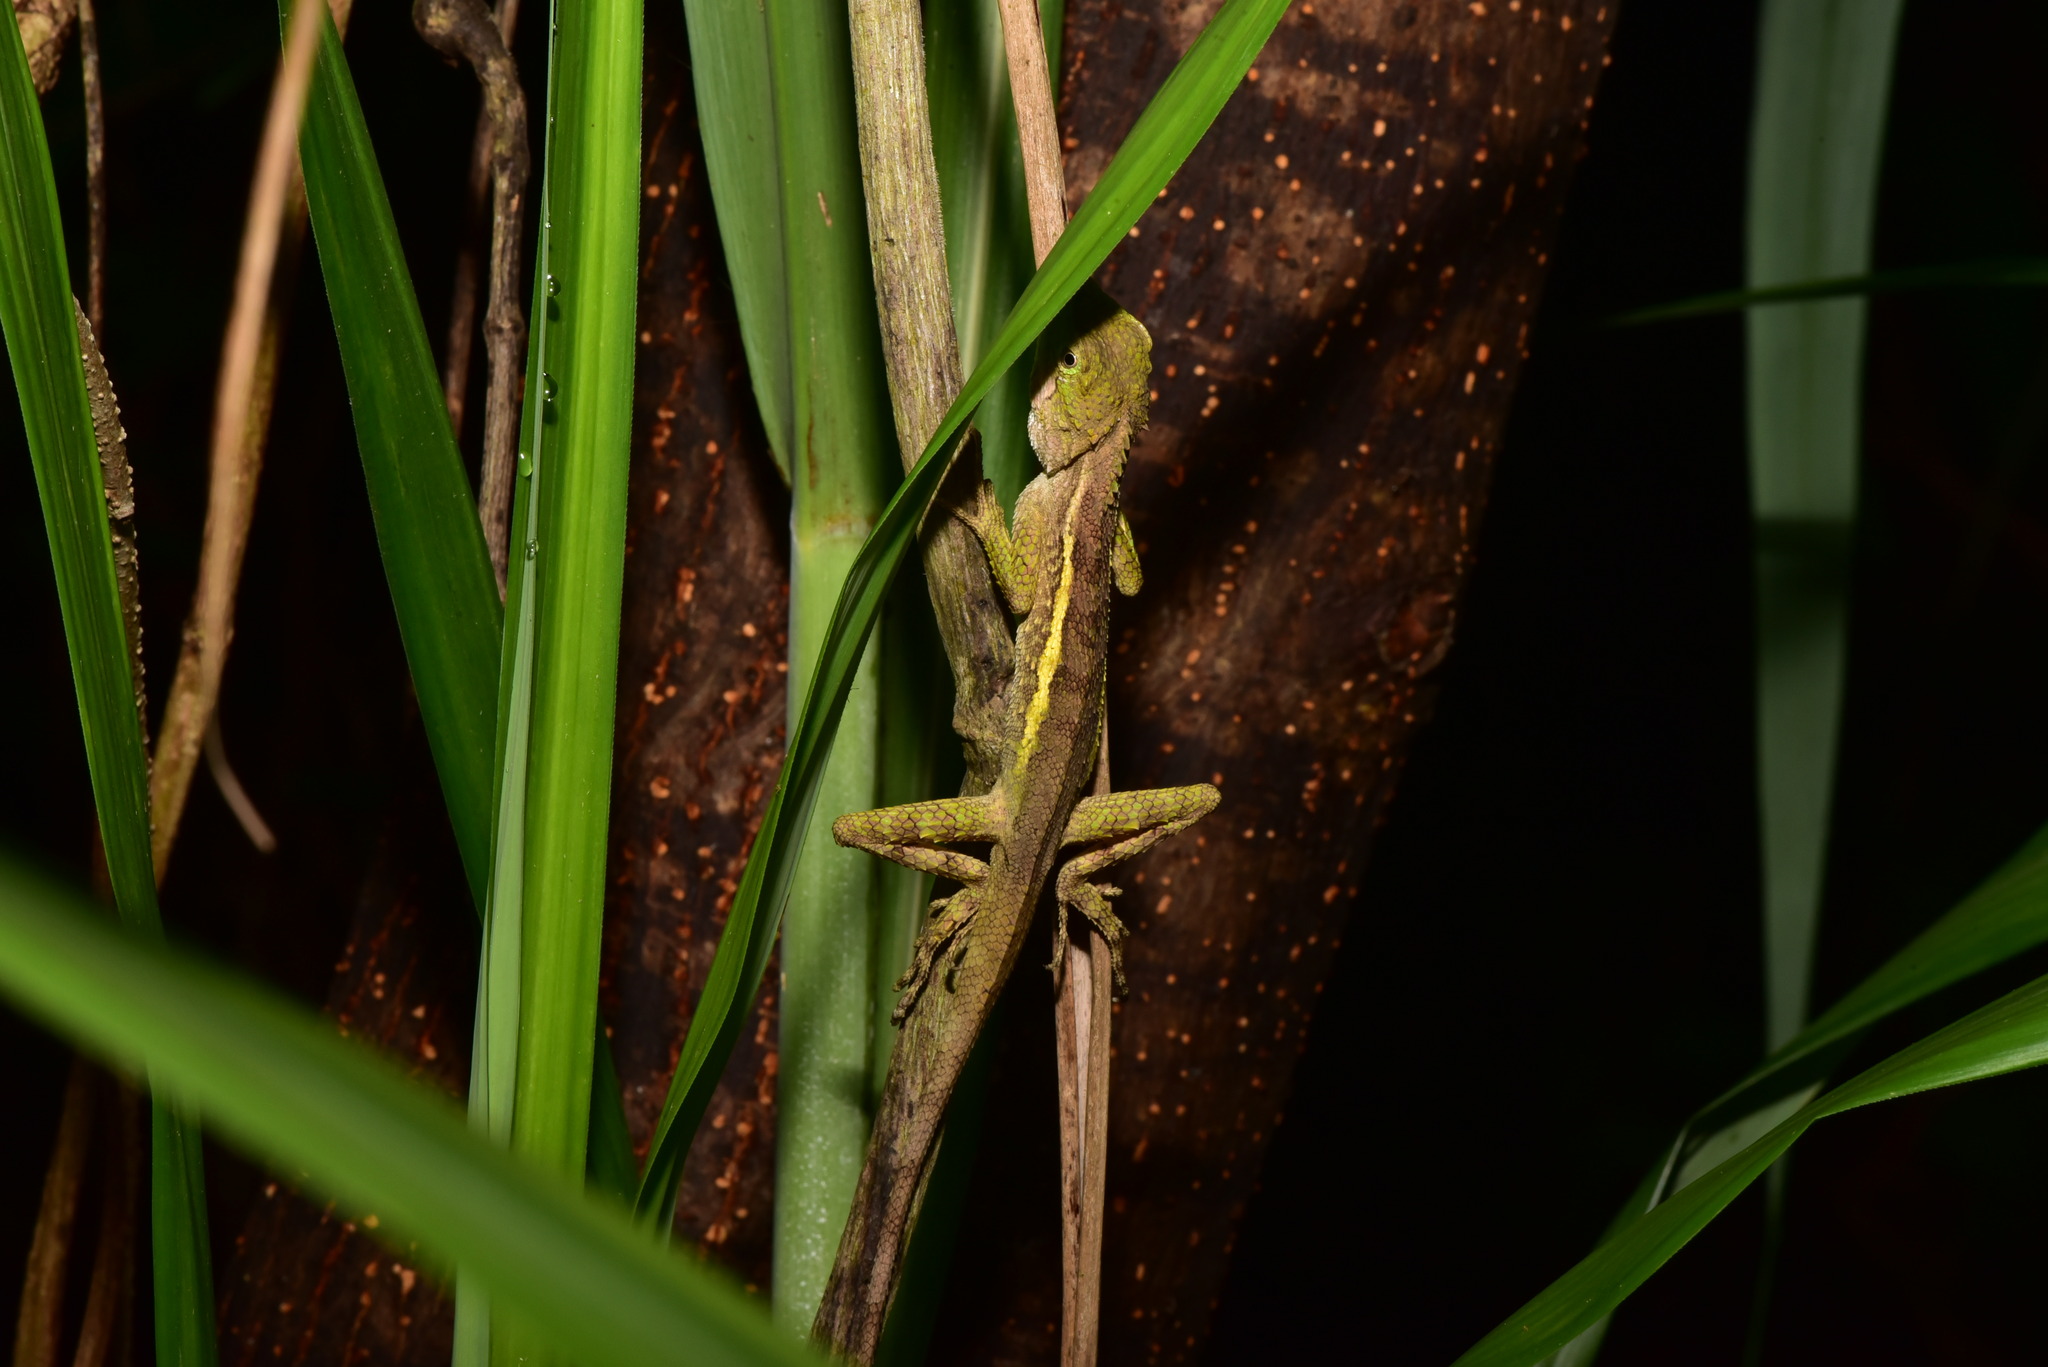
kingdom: Animalia
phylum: Chordata
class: Squamata
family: Agamidae
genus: Diploderma
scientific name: Diploderma swinhonis
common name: Taiwan japalure
